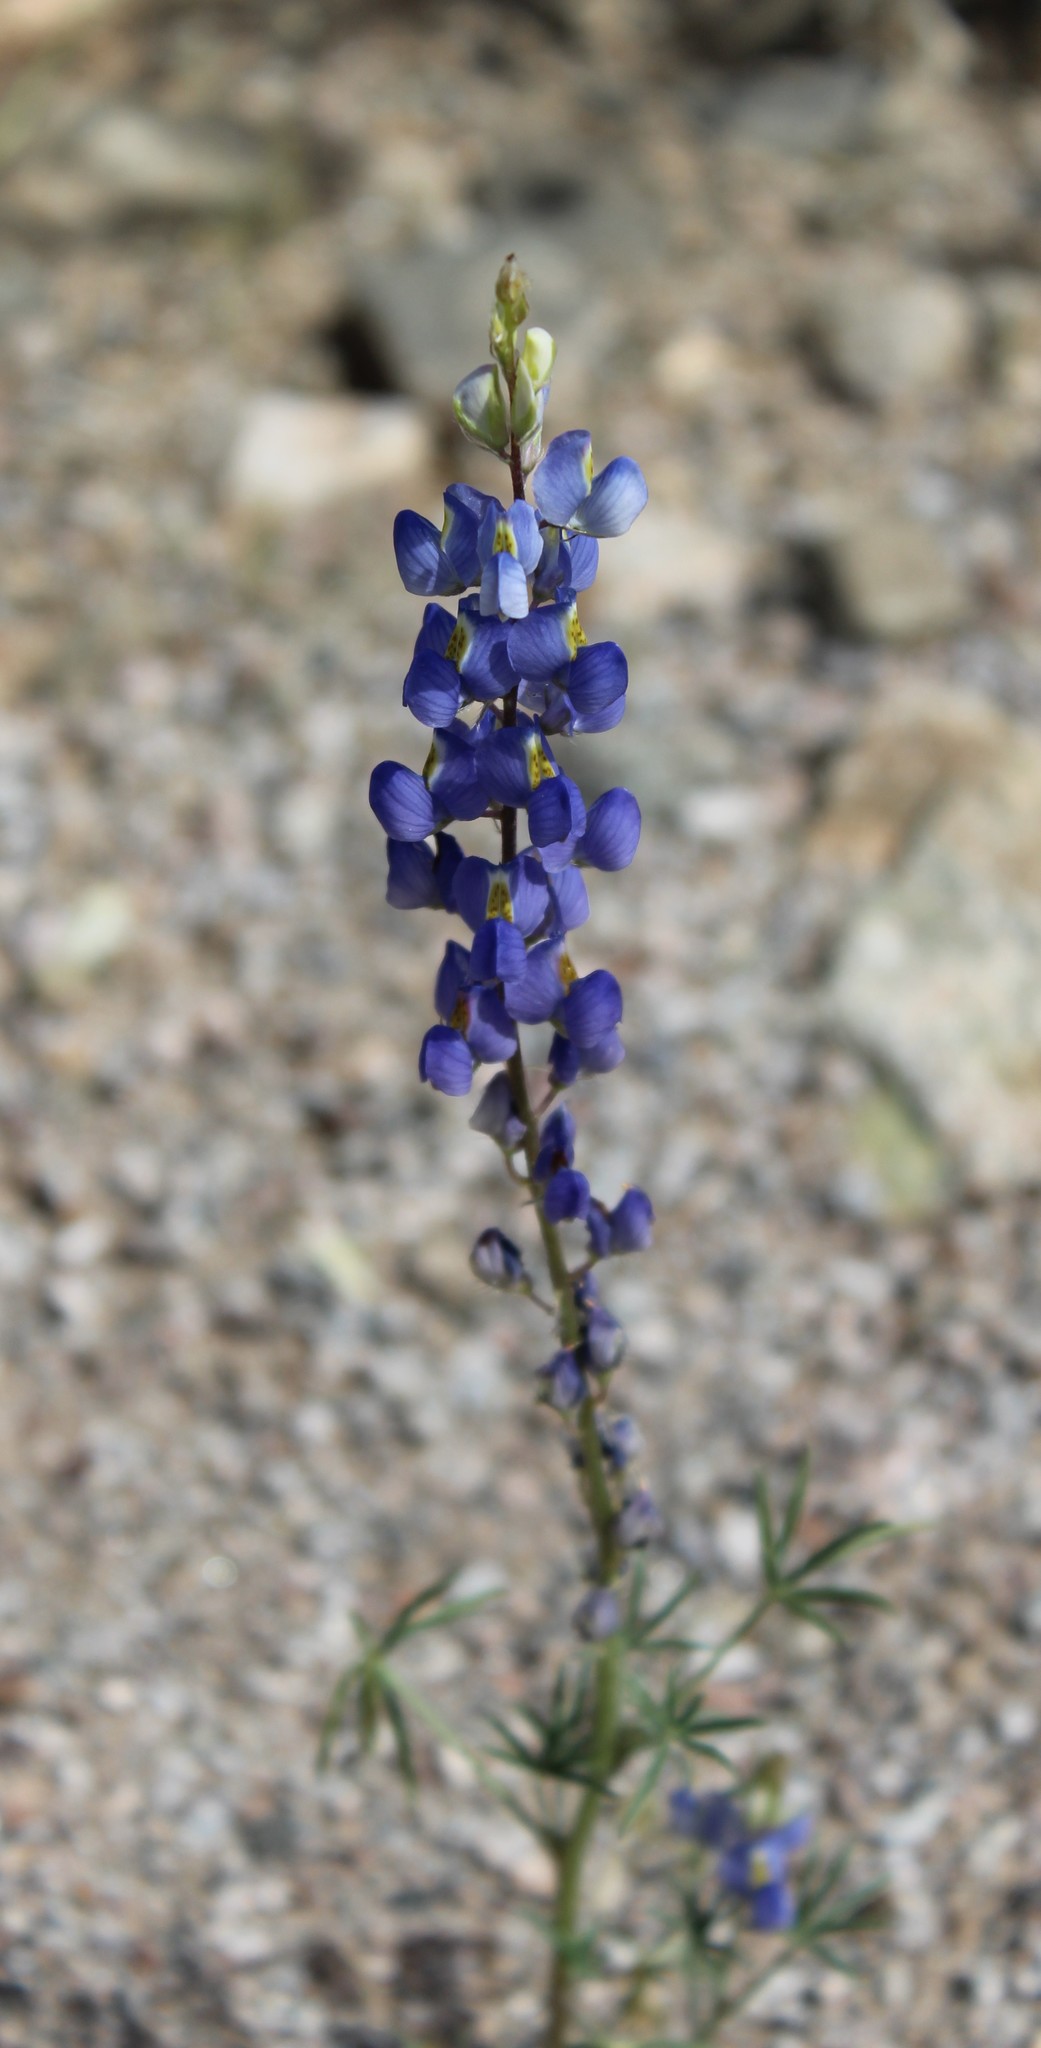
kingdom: Plantae
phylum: Tracheophyta
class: Magnoliopsida
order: Fabales
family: Fabaceae
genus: Lupinus
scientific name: Lupinus sparsiflorus
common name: Coulter's lupine
